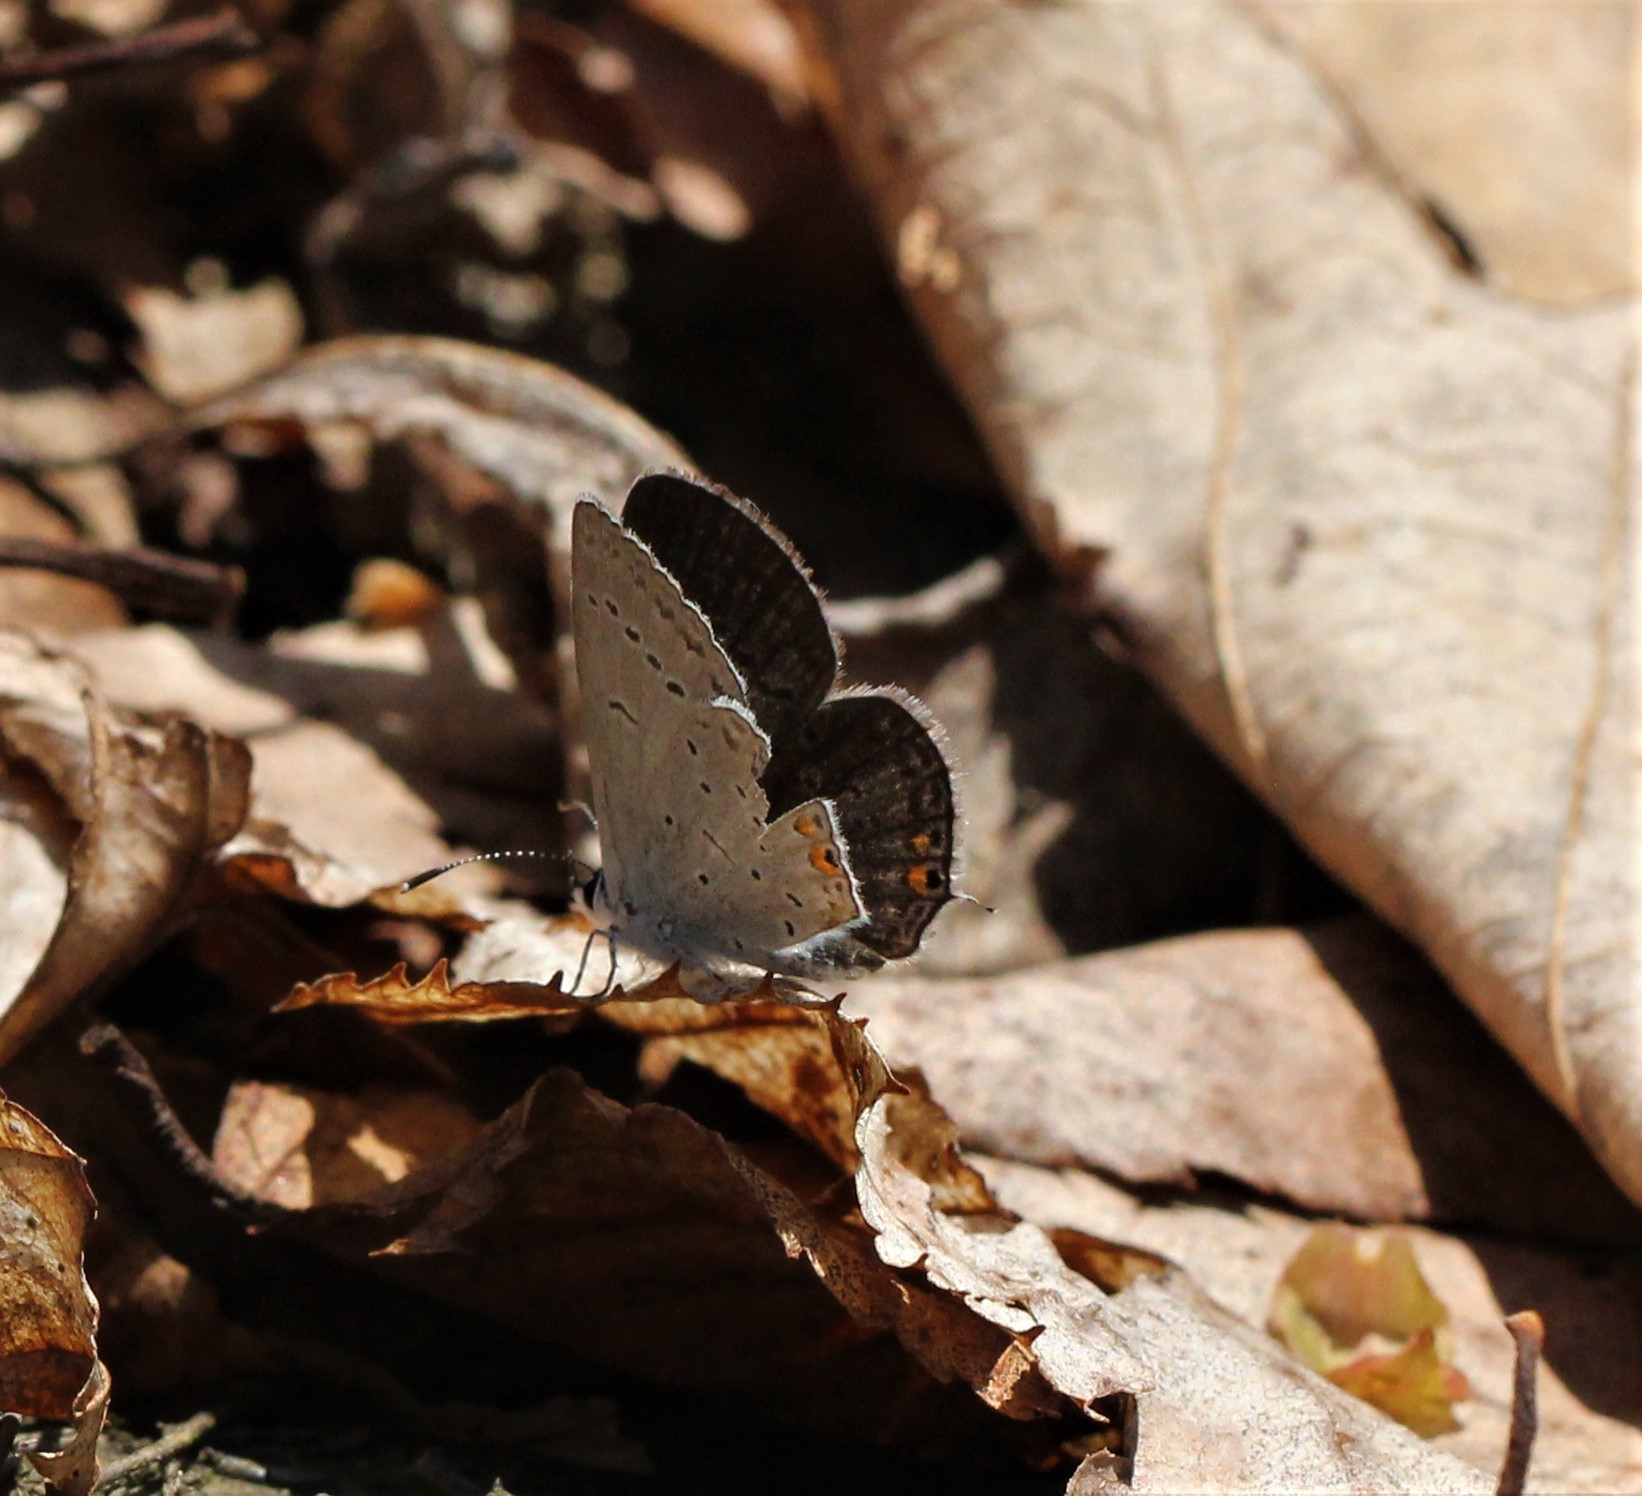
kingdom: Animalia
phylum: Arthropoda
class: Insecta
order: Lepidoptera
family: Lycaenidae
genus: Elkalyce
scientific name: Elkalyce comyntas
